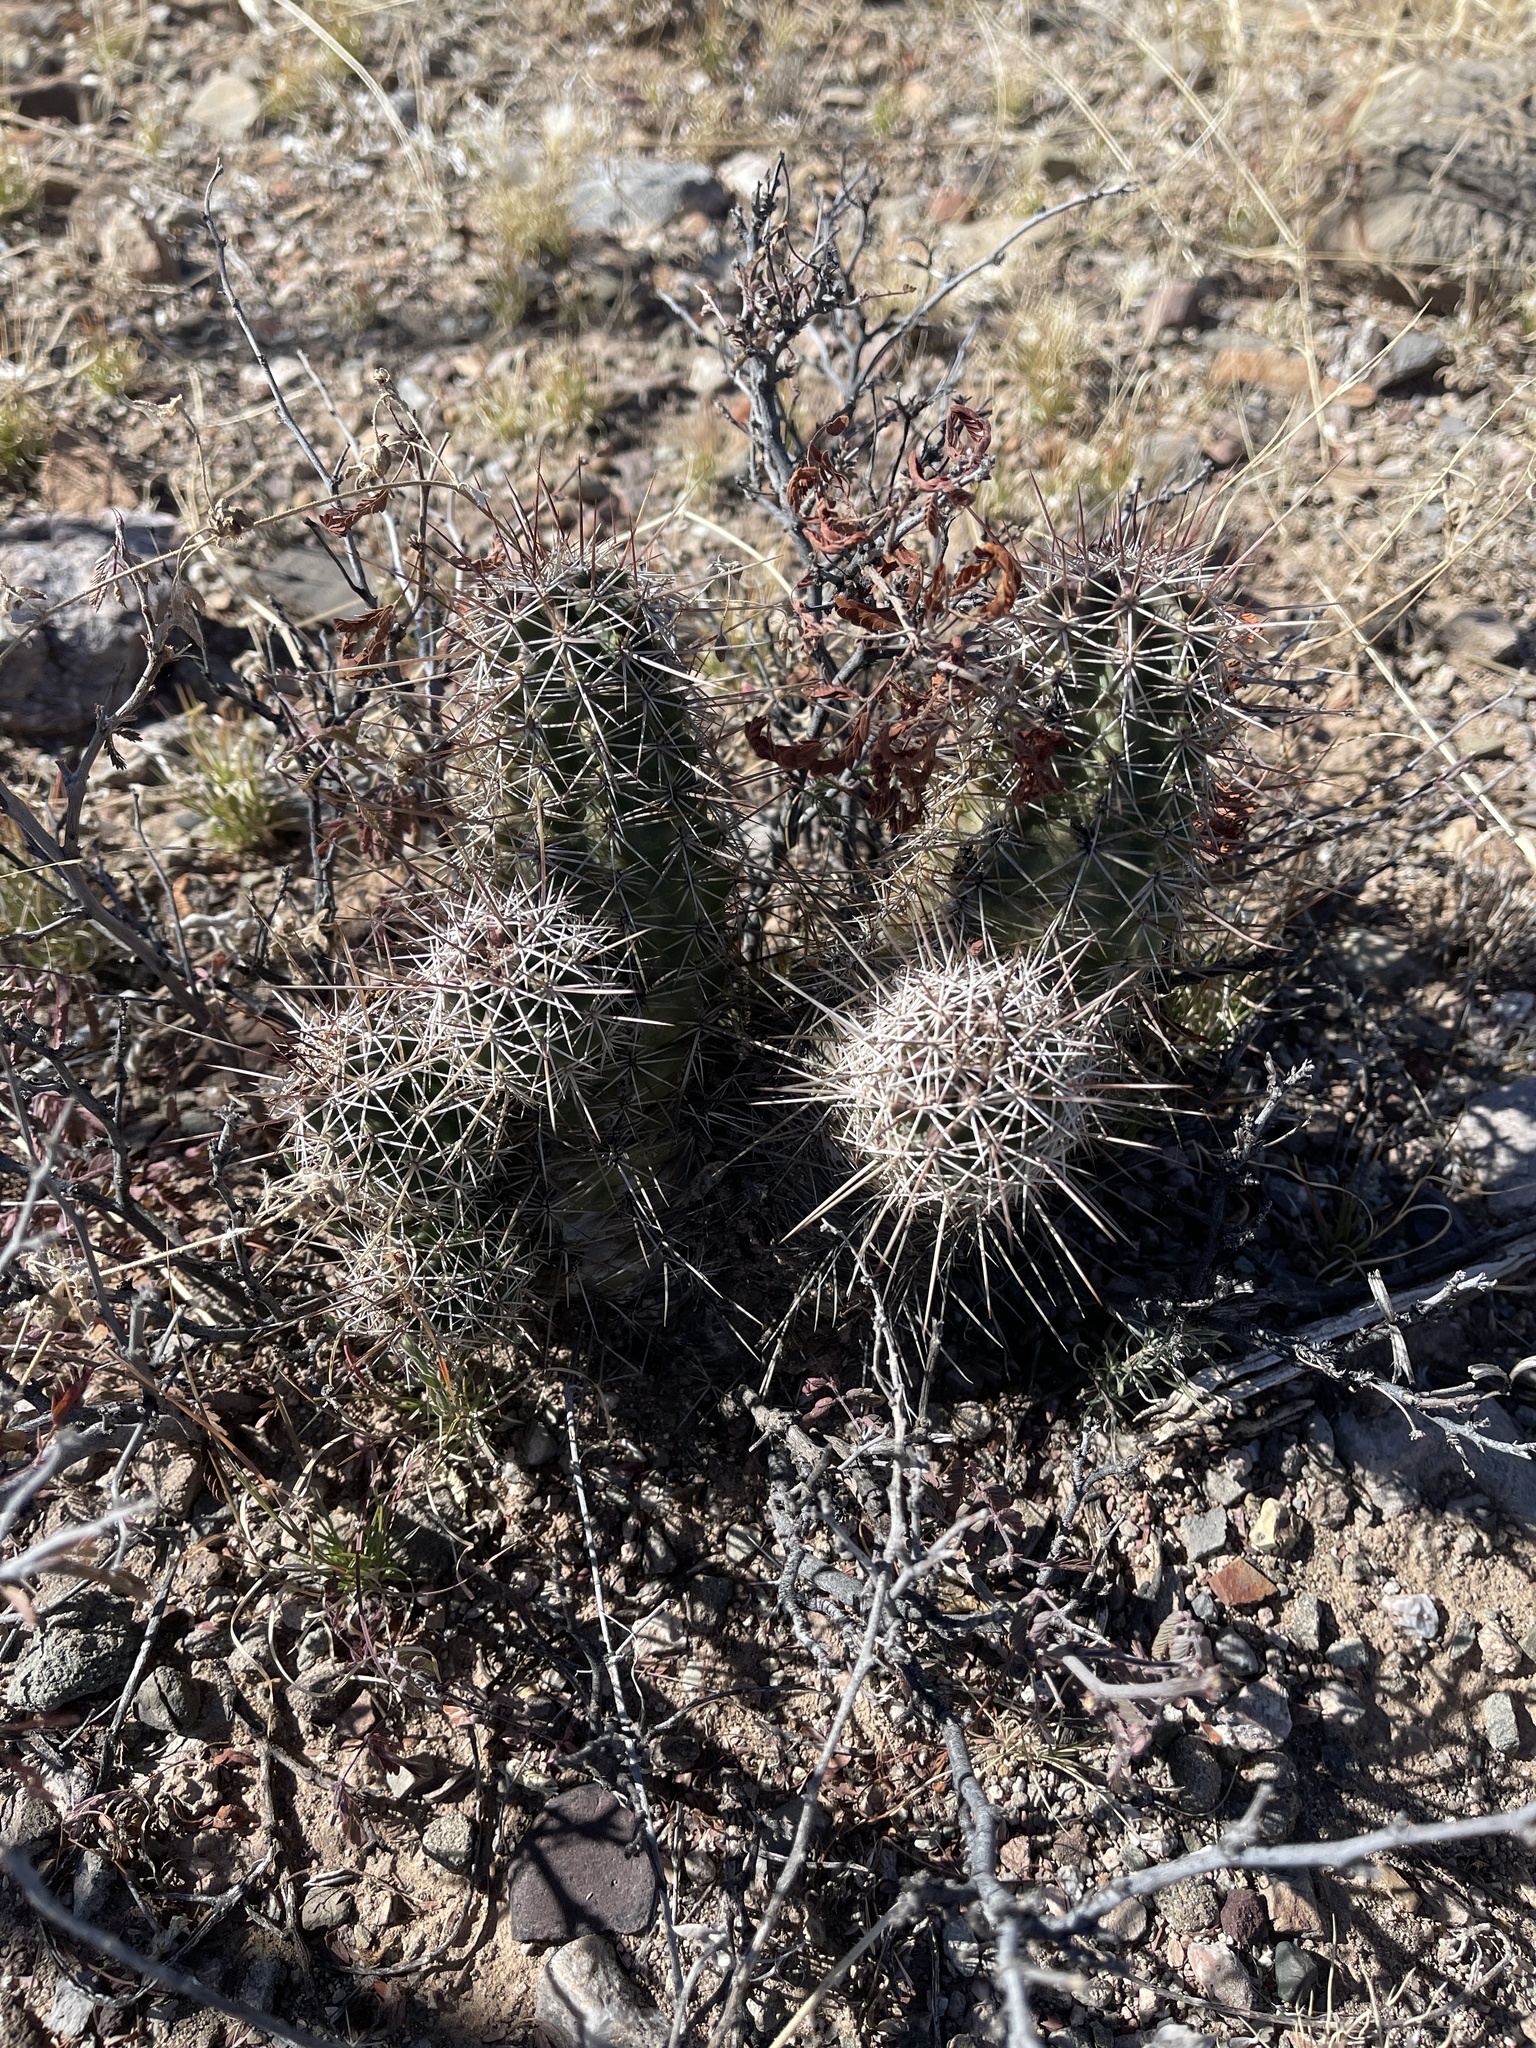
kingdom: Plantae
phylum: Tracheophyta
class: Magnoliopsida
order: Caryophyllales
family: Cactaceae
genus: Echinocereus
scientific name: Echinocereus fasciculatus
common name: Bundle hedgehog
